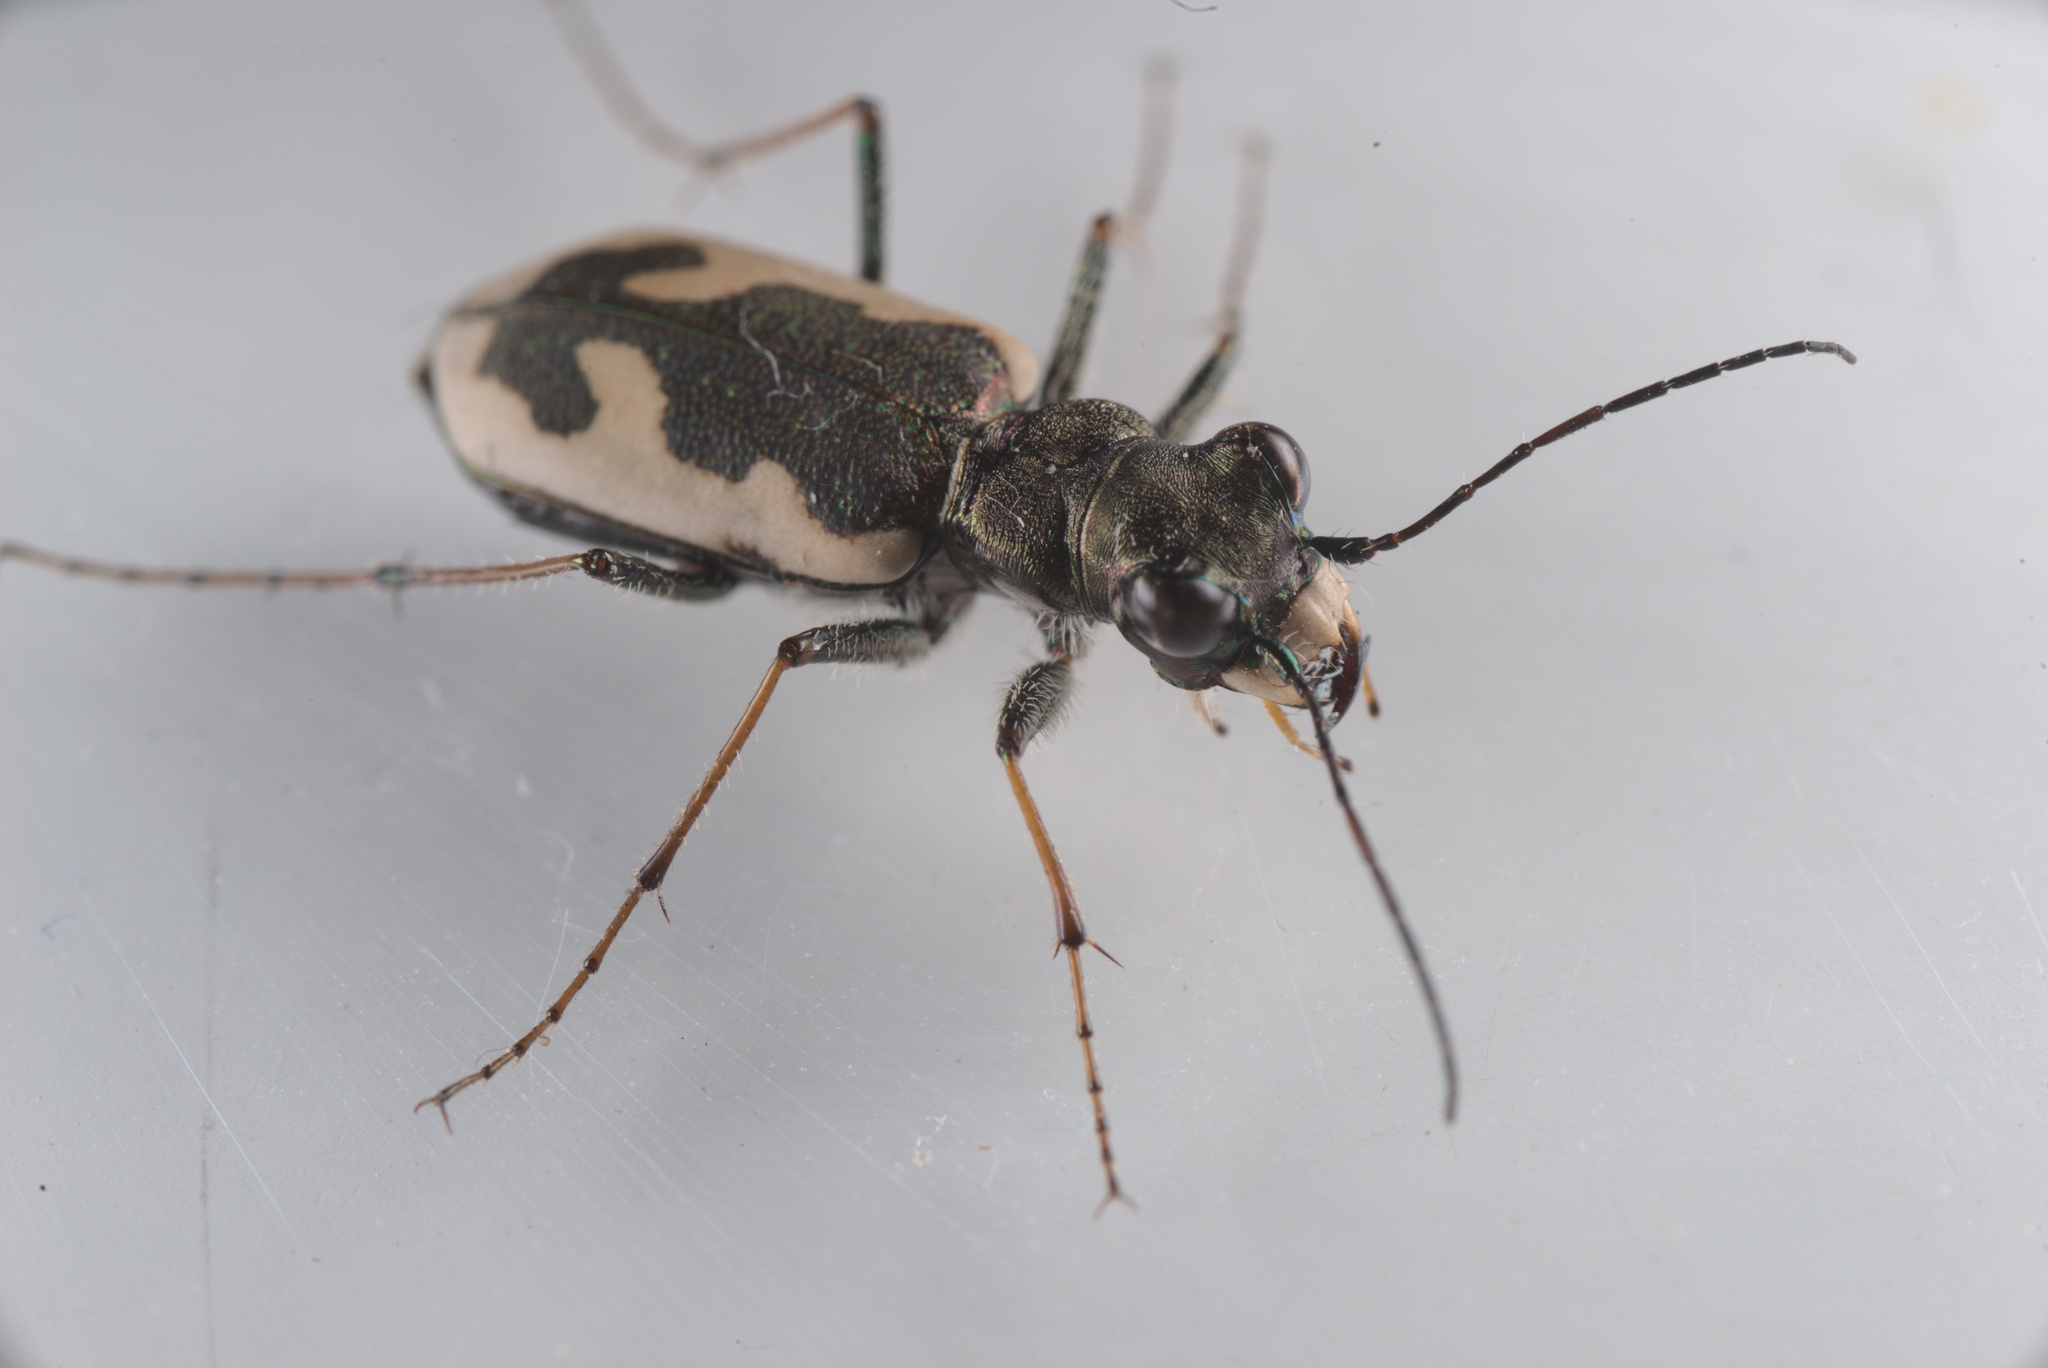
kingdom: Animalia
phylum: Arthropoda
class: Insecta
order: Coleoptera
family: Carabidae
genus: Neocicindela
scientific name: Neocicindela latecincta
